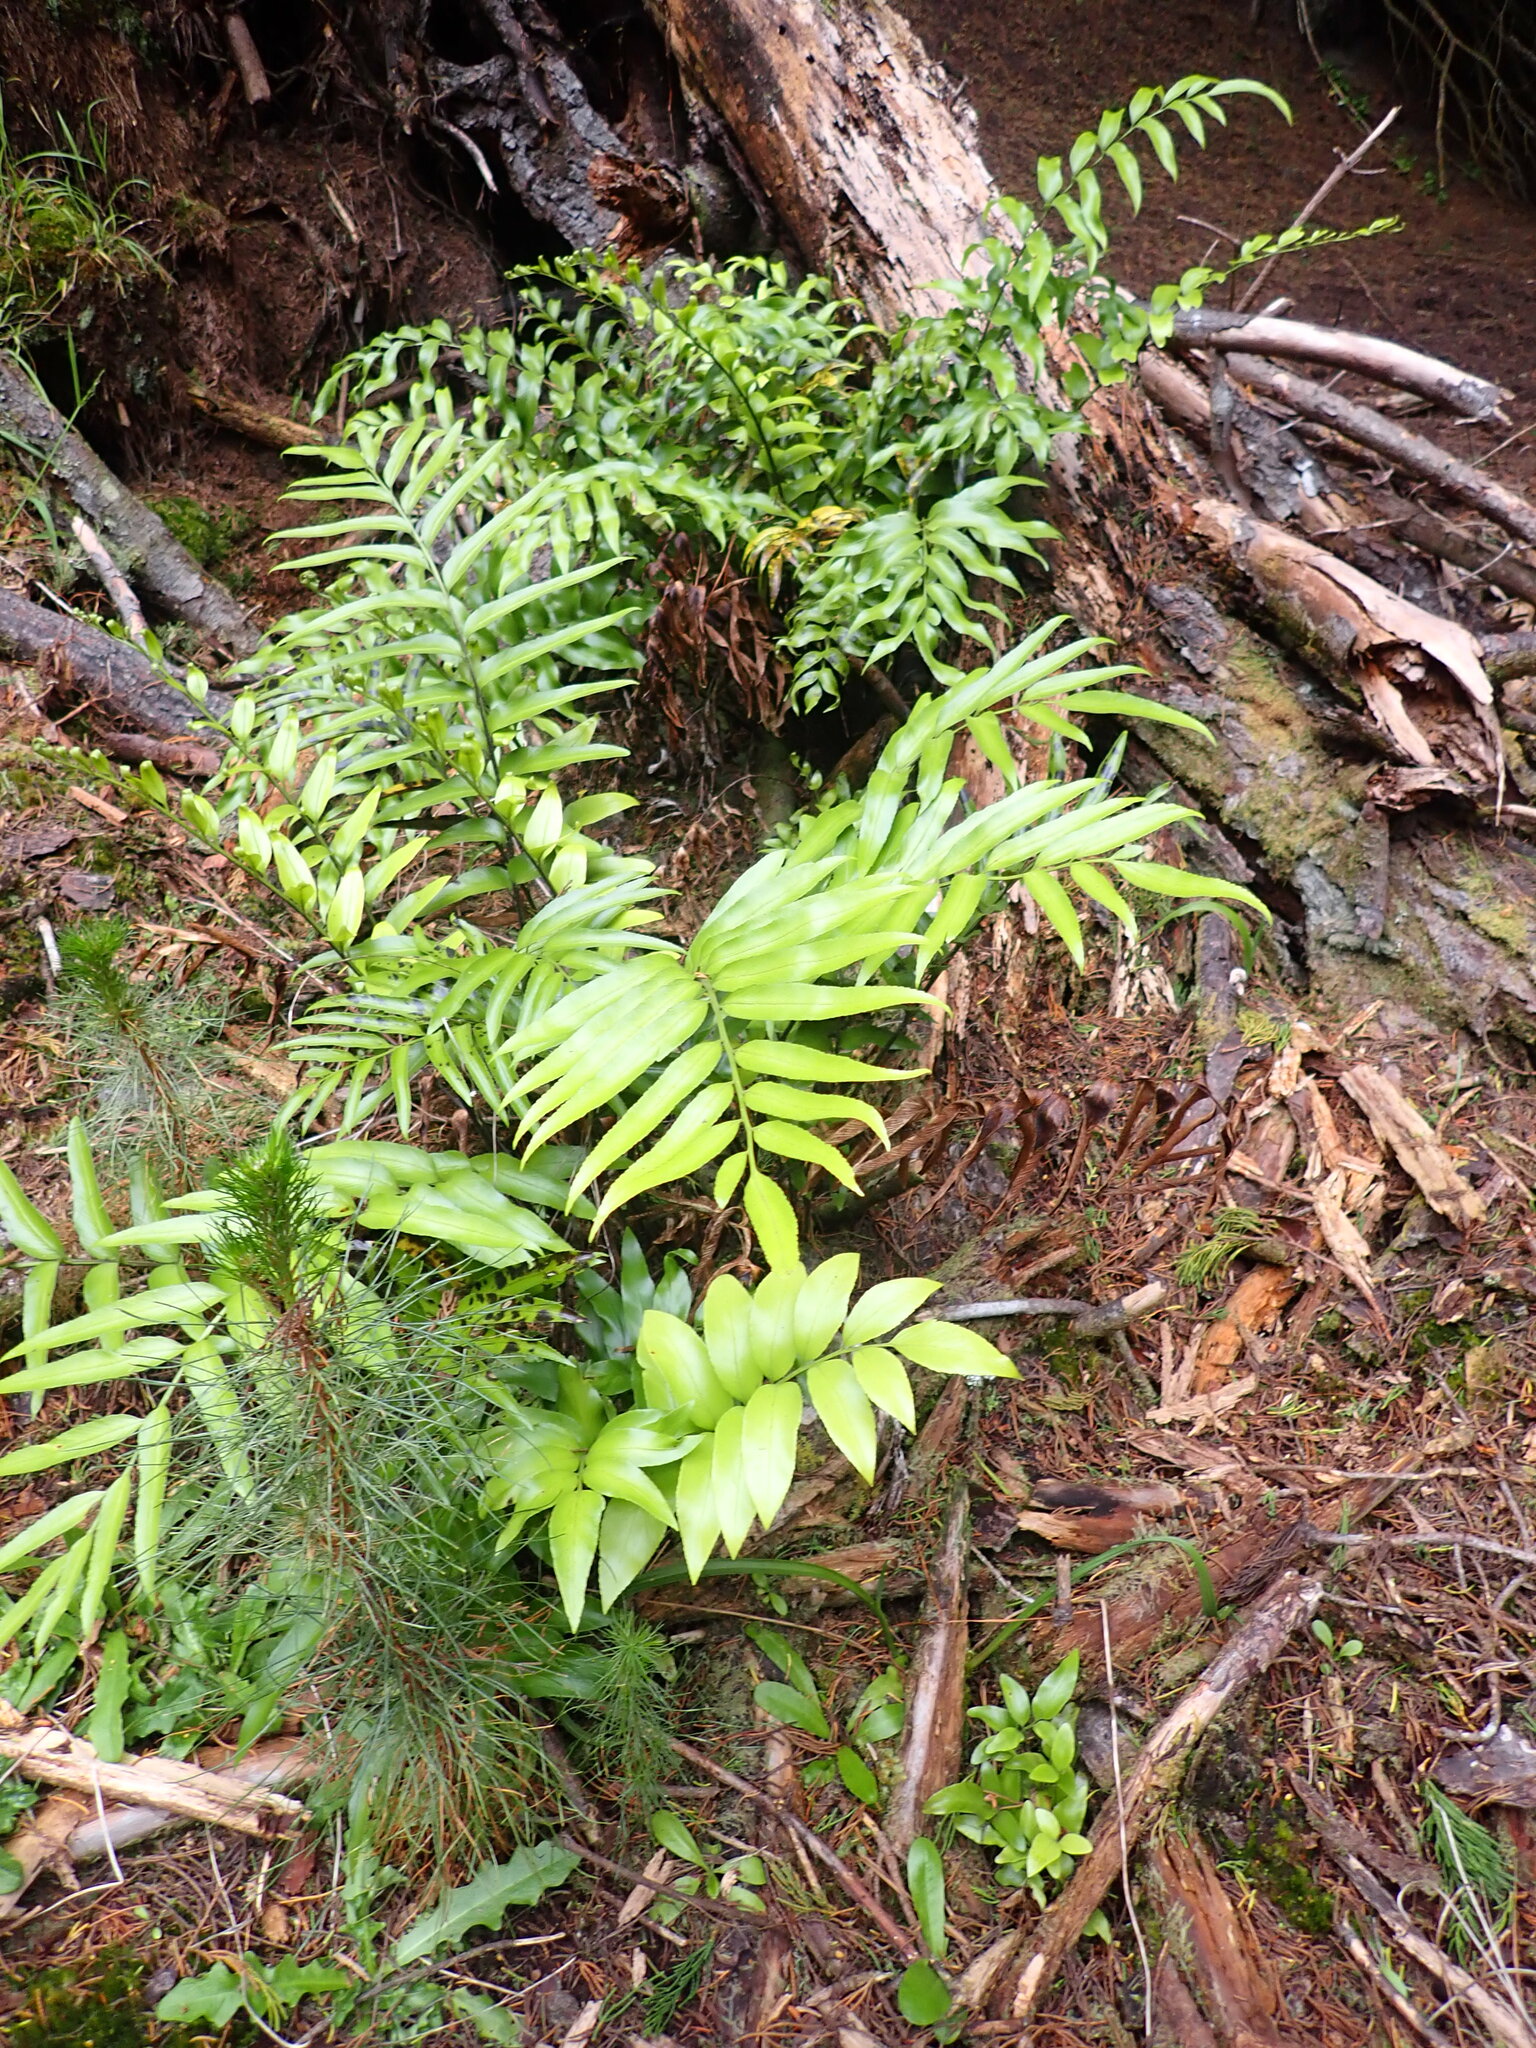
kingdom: Plantae
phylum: Tracheophyta
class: Polypodiopsida
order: Polypodiales
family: Aspleniaceae
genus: Asplenium
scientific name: Asplenium oblongifolium
